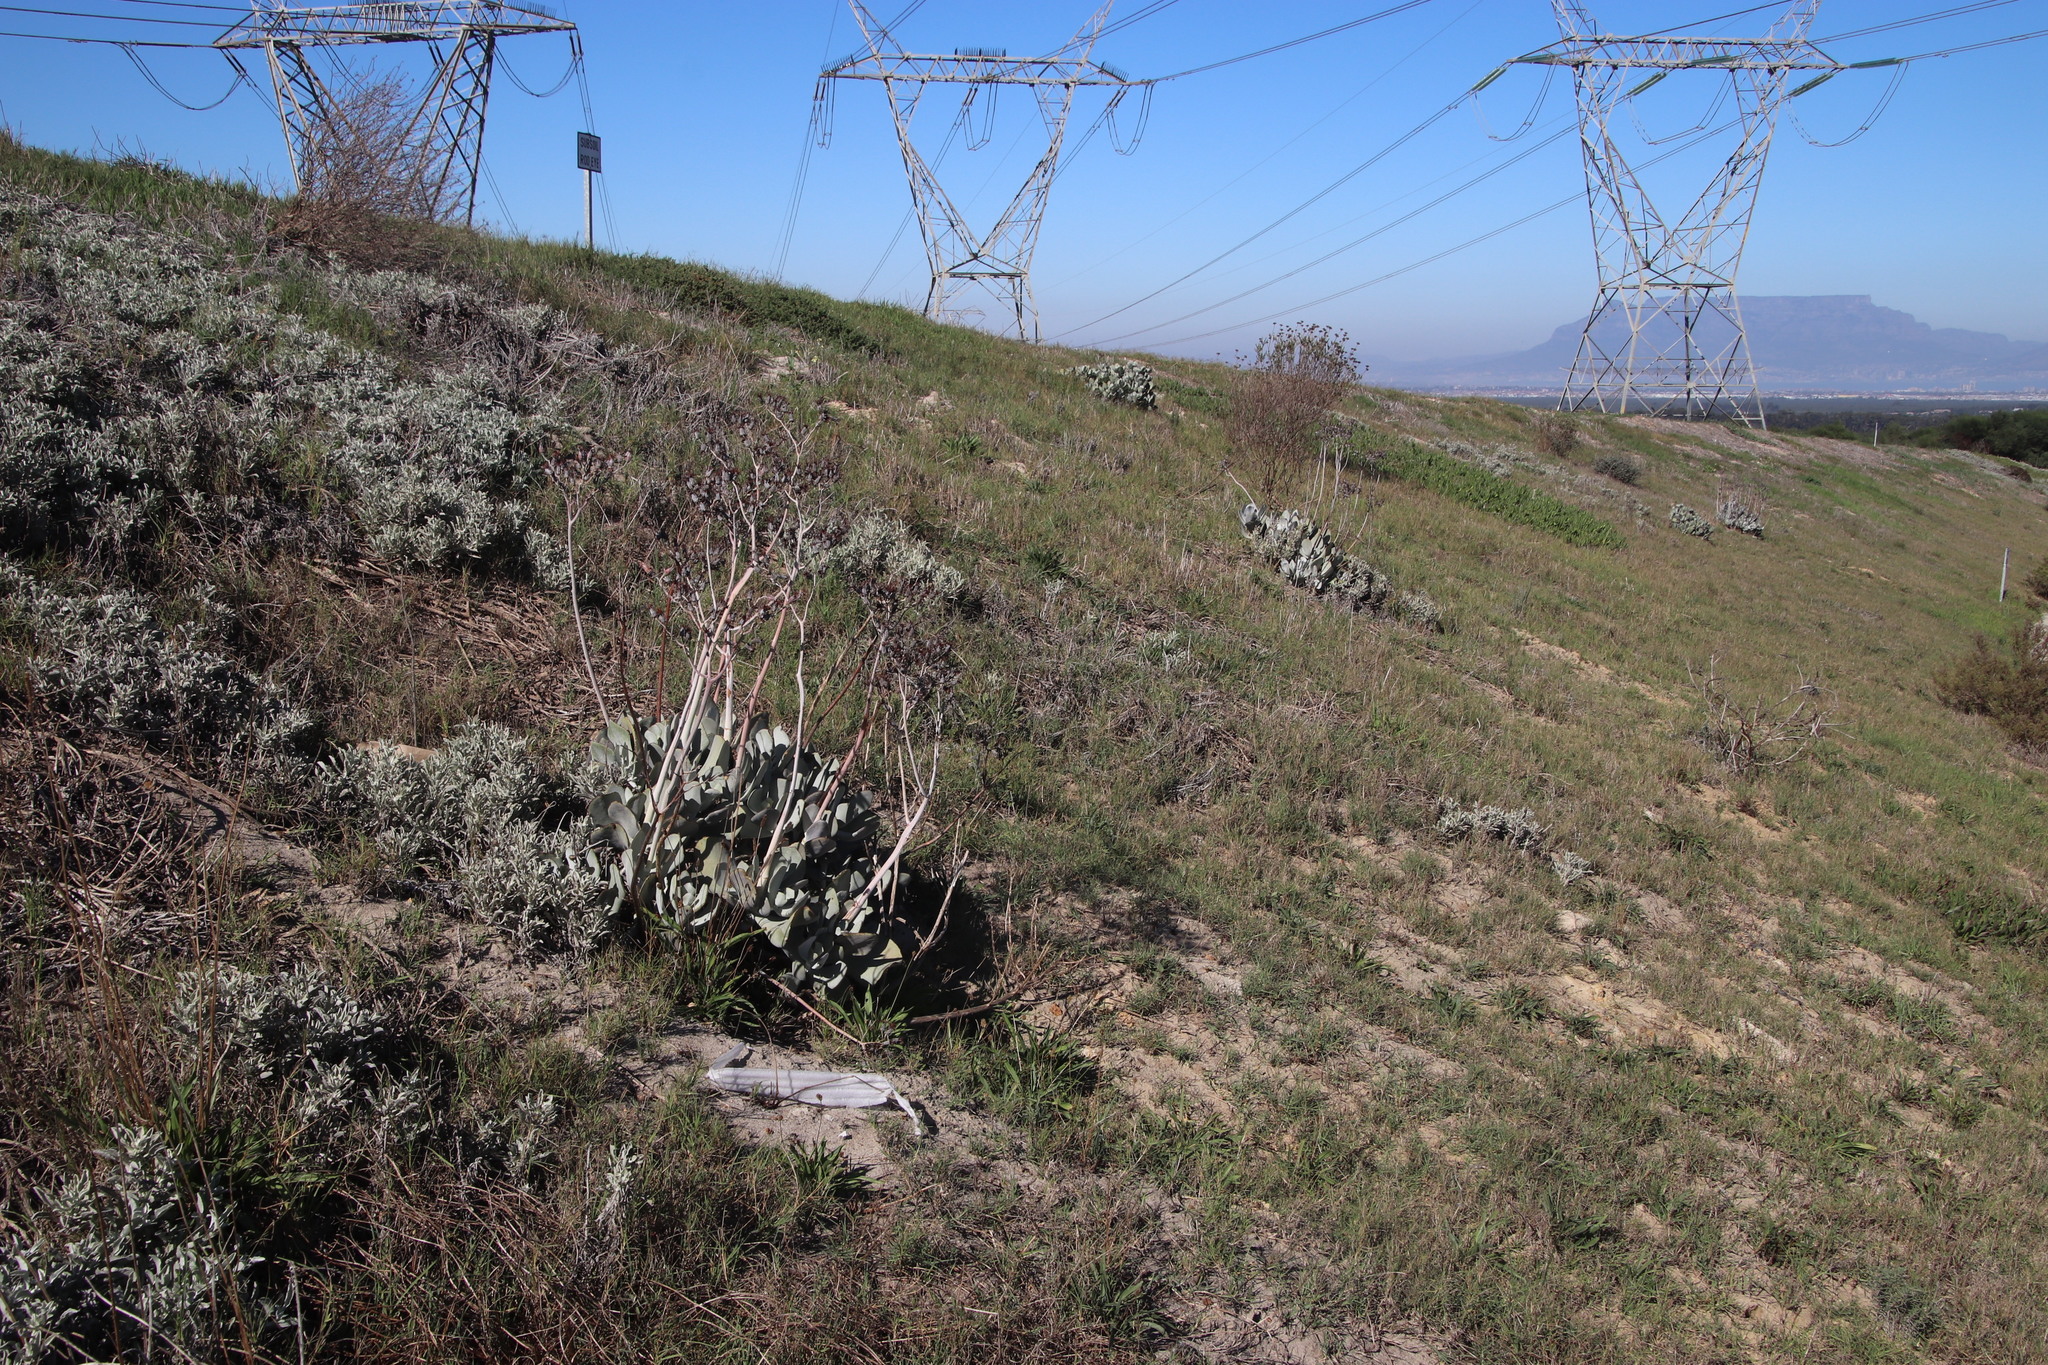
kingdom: Plantae
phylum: Tracheophyta
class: Magnoliopsida
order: Saxifragales
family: Crassulaceae
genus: Cotyledon
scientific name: Cotyledon orbiculata
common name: Pig's ear
